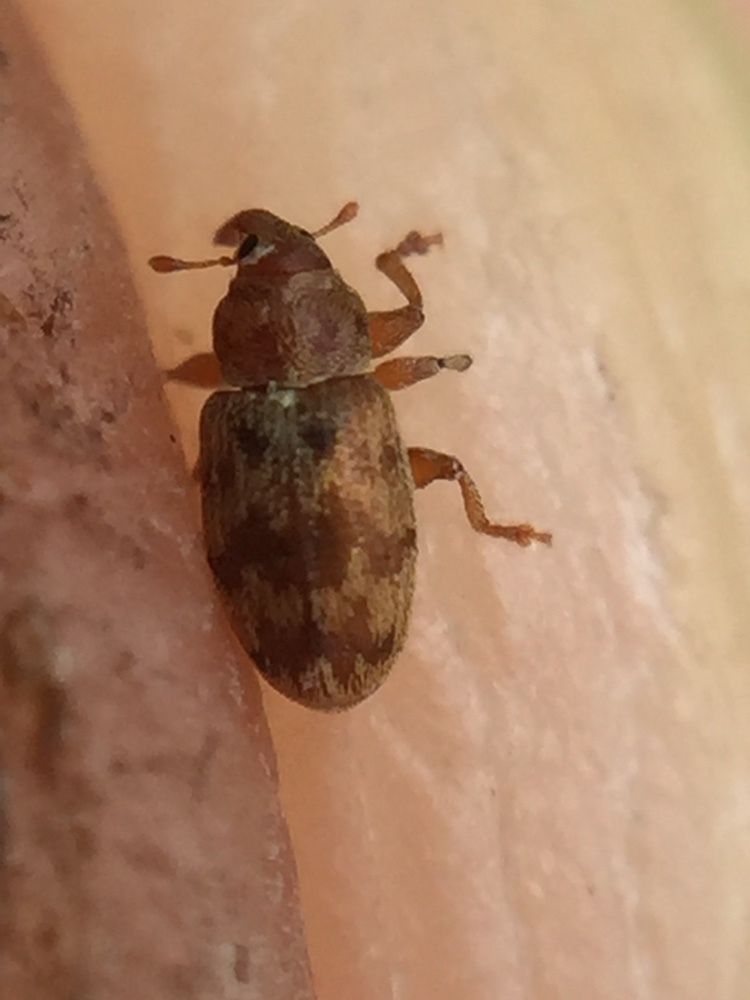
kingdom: Animalia
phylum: Arthropoda
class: Insecta
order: Coleoptera
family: Curculionidae
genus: Epamoebus
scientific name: Epamoebus ziczac
